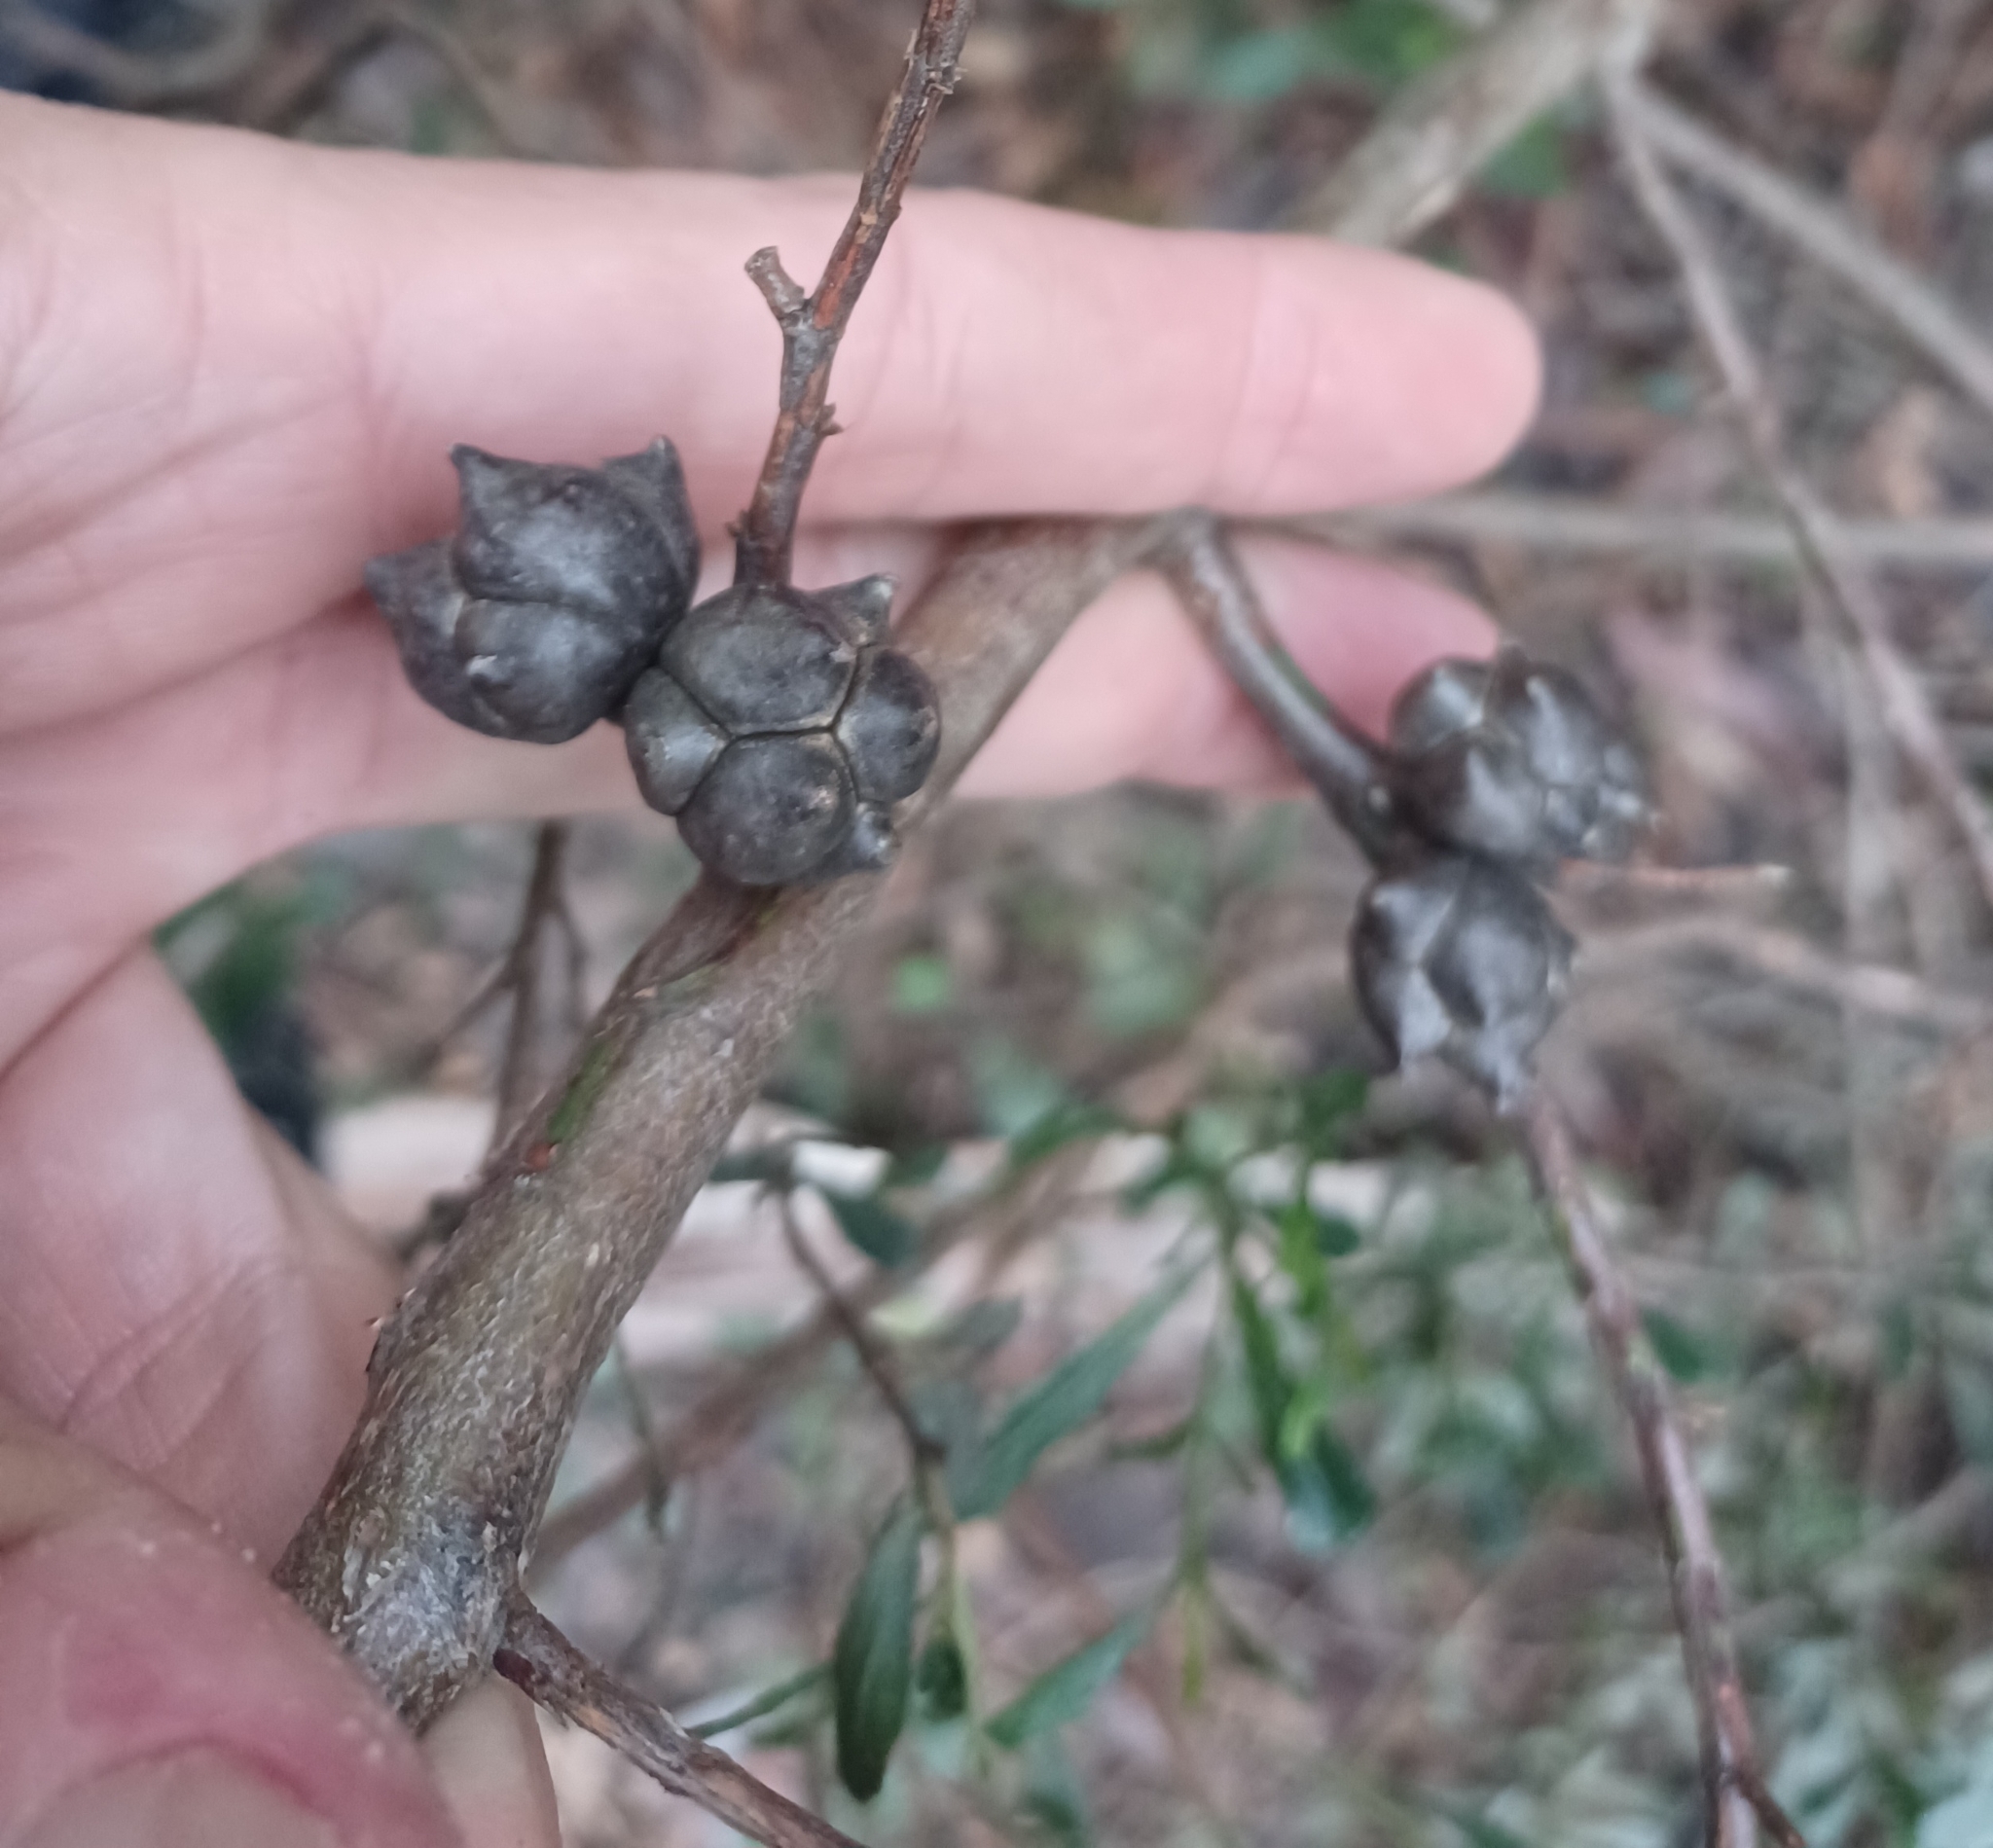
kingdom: Plantae
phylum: Tracheophyta
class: Pinopsida
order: Pinales
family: Cupressaceae
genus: Callitris
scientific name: Callitris rhomboidea
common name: Illawara mountain pine
